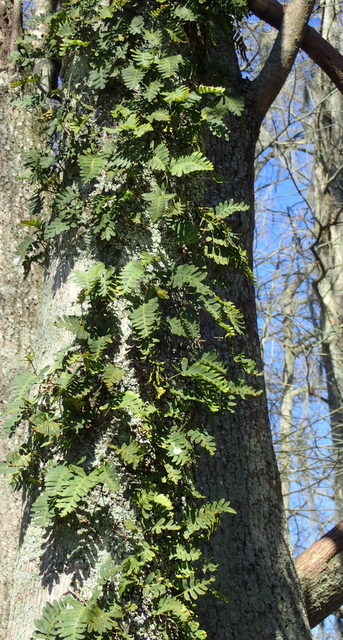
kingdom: Plantae
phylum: Tracheophyta
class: Polypodiopsida
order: Polypodiales
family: Polypodiaceae
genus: Pleopeltis
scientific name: Pleopeltis michauxiana
